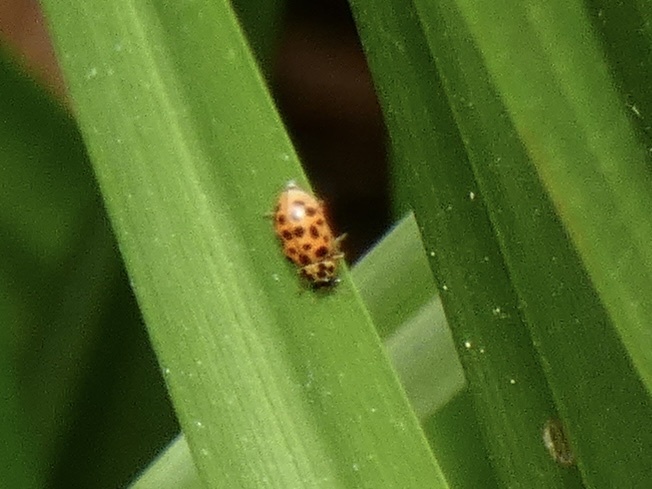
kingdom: Animalia
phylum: Arthropoda
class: Insecta
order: Coleoptera
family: Coccinellidae
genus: Anisosticta
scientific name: Anisosticta novemdecimpunctata
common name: Water ladybird
